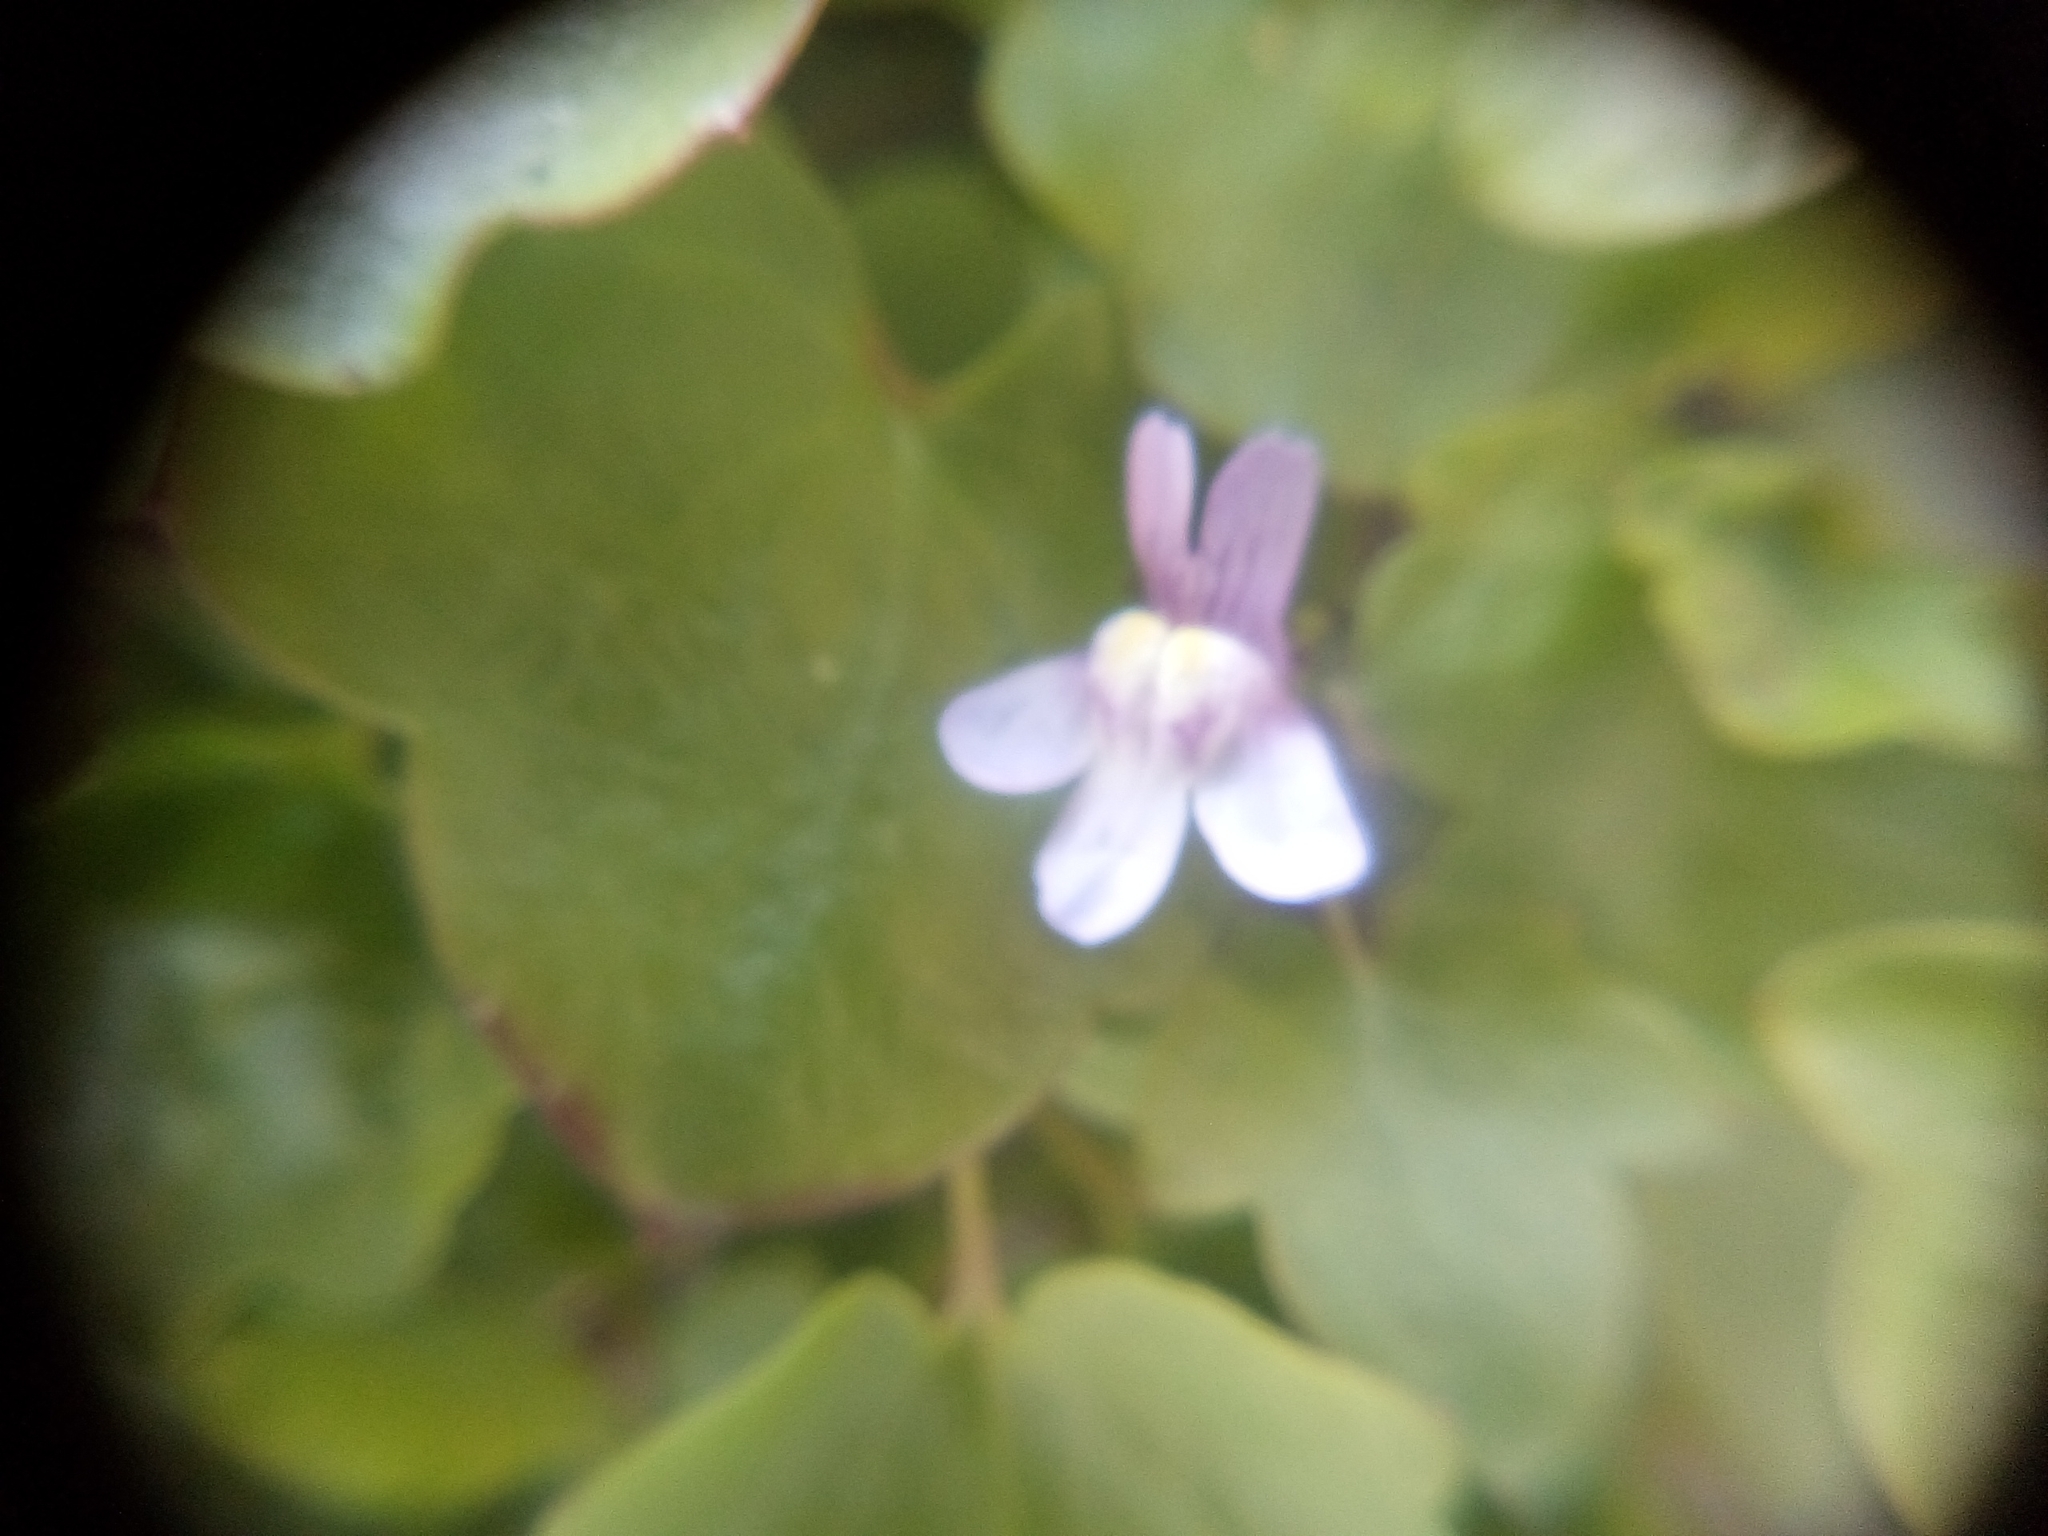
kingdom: Plantae
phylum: Tracheophyta
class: Magnoliopsida
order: Lamiales
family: Plantaginaceae
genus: Cymbalaria
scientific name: Cymbalaria muralis
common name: Ivy-leaved toadflax
